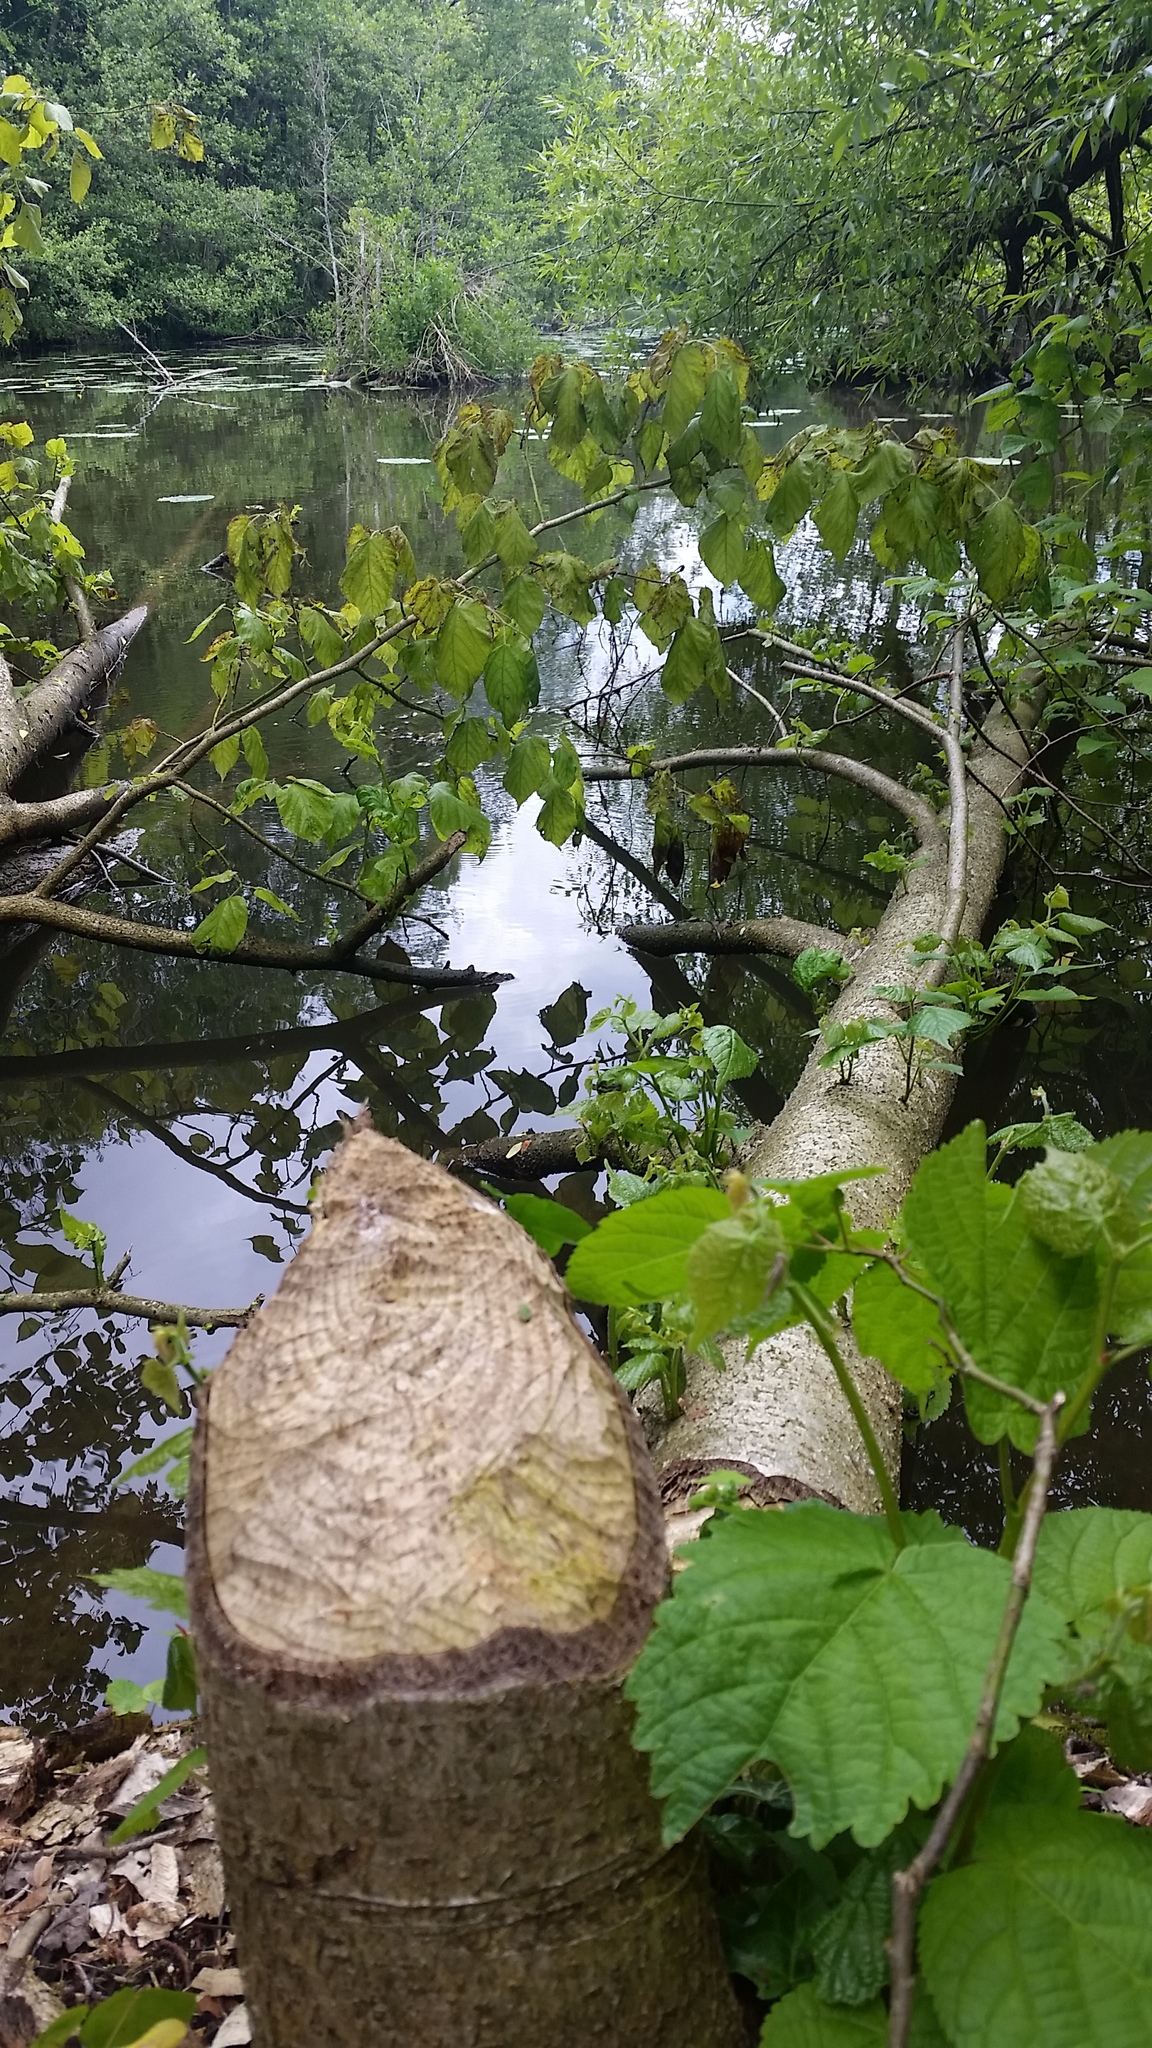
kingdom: Animalia
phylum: Chordata
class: Mammalia
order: Rodentia
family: Castoridae
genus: Castor
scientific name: Castor fiber
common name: Eurasian beaver
